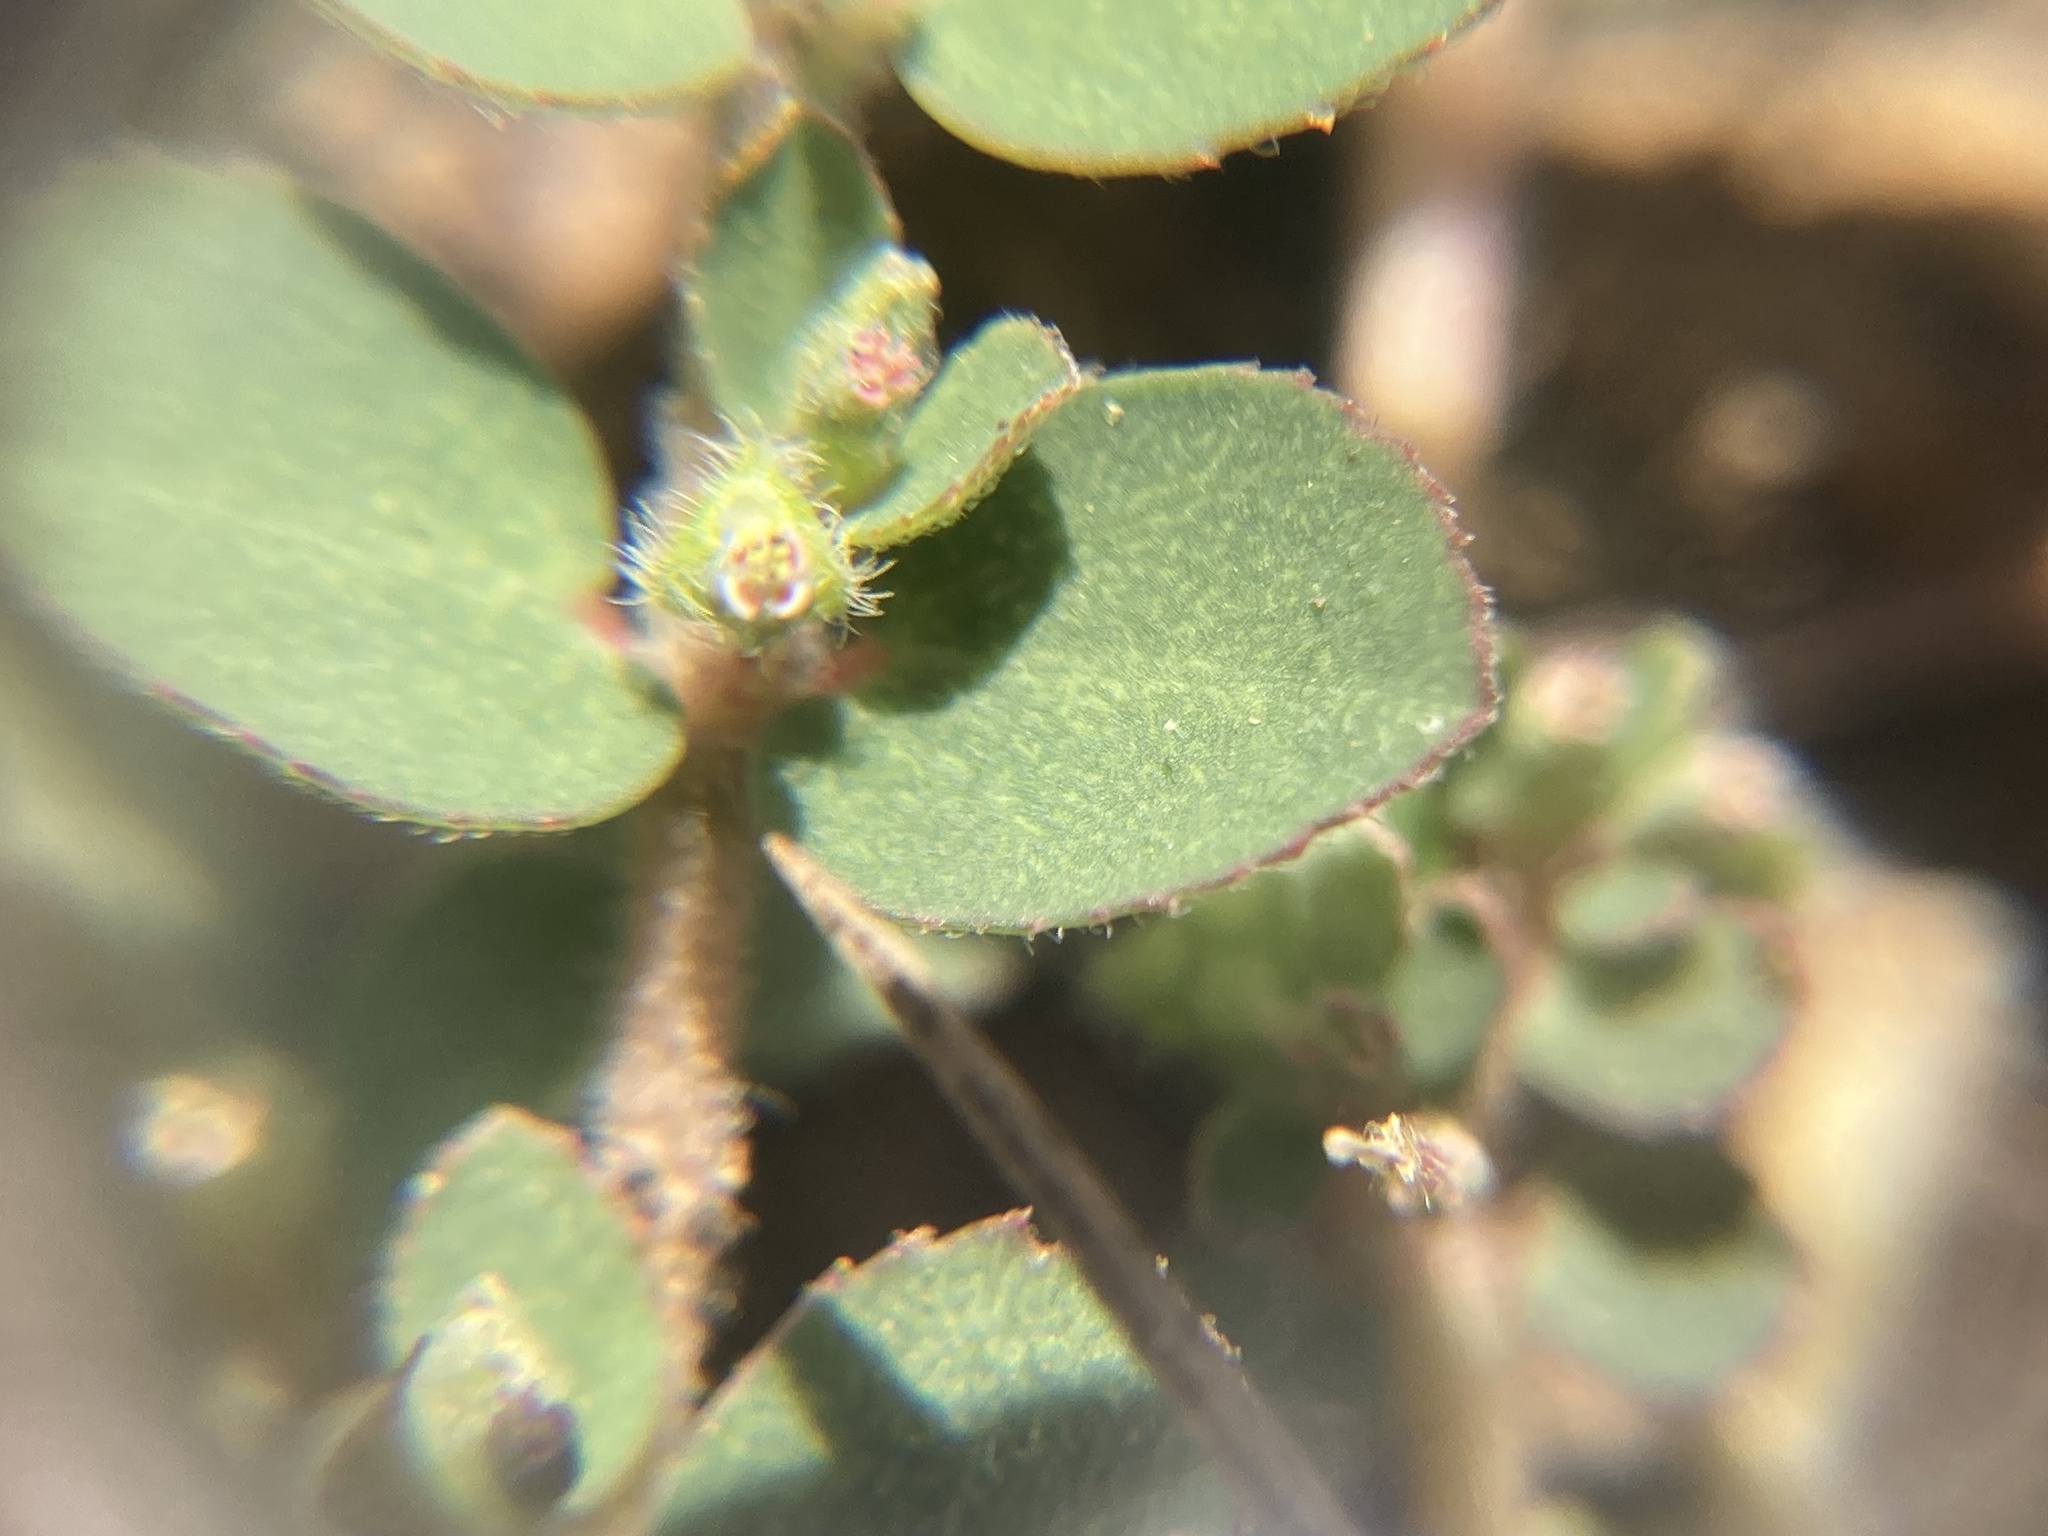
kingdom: Plantae
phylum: Tracheophyta
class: Magnoliopsida
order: Malpighiales
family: Euphorbiaceae
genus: Euphorbia
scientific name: Euphorbia prostrata
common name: Prostrate sandmat
